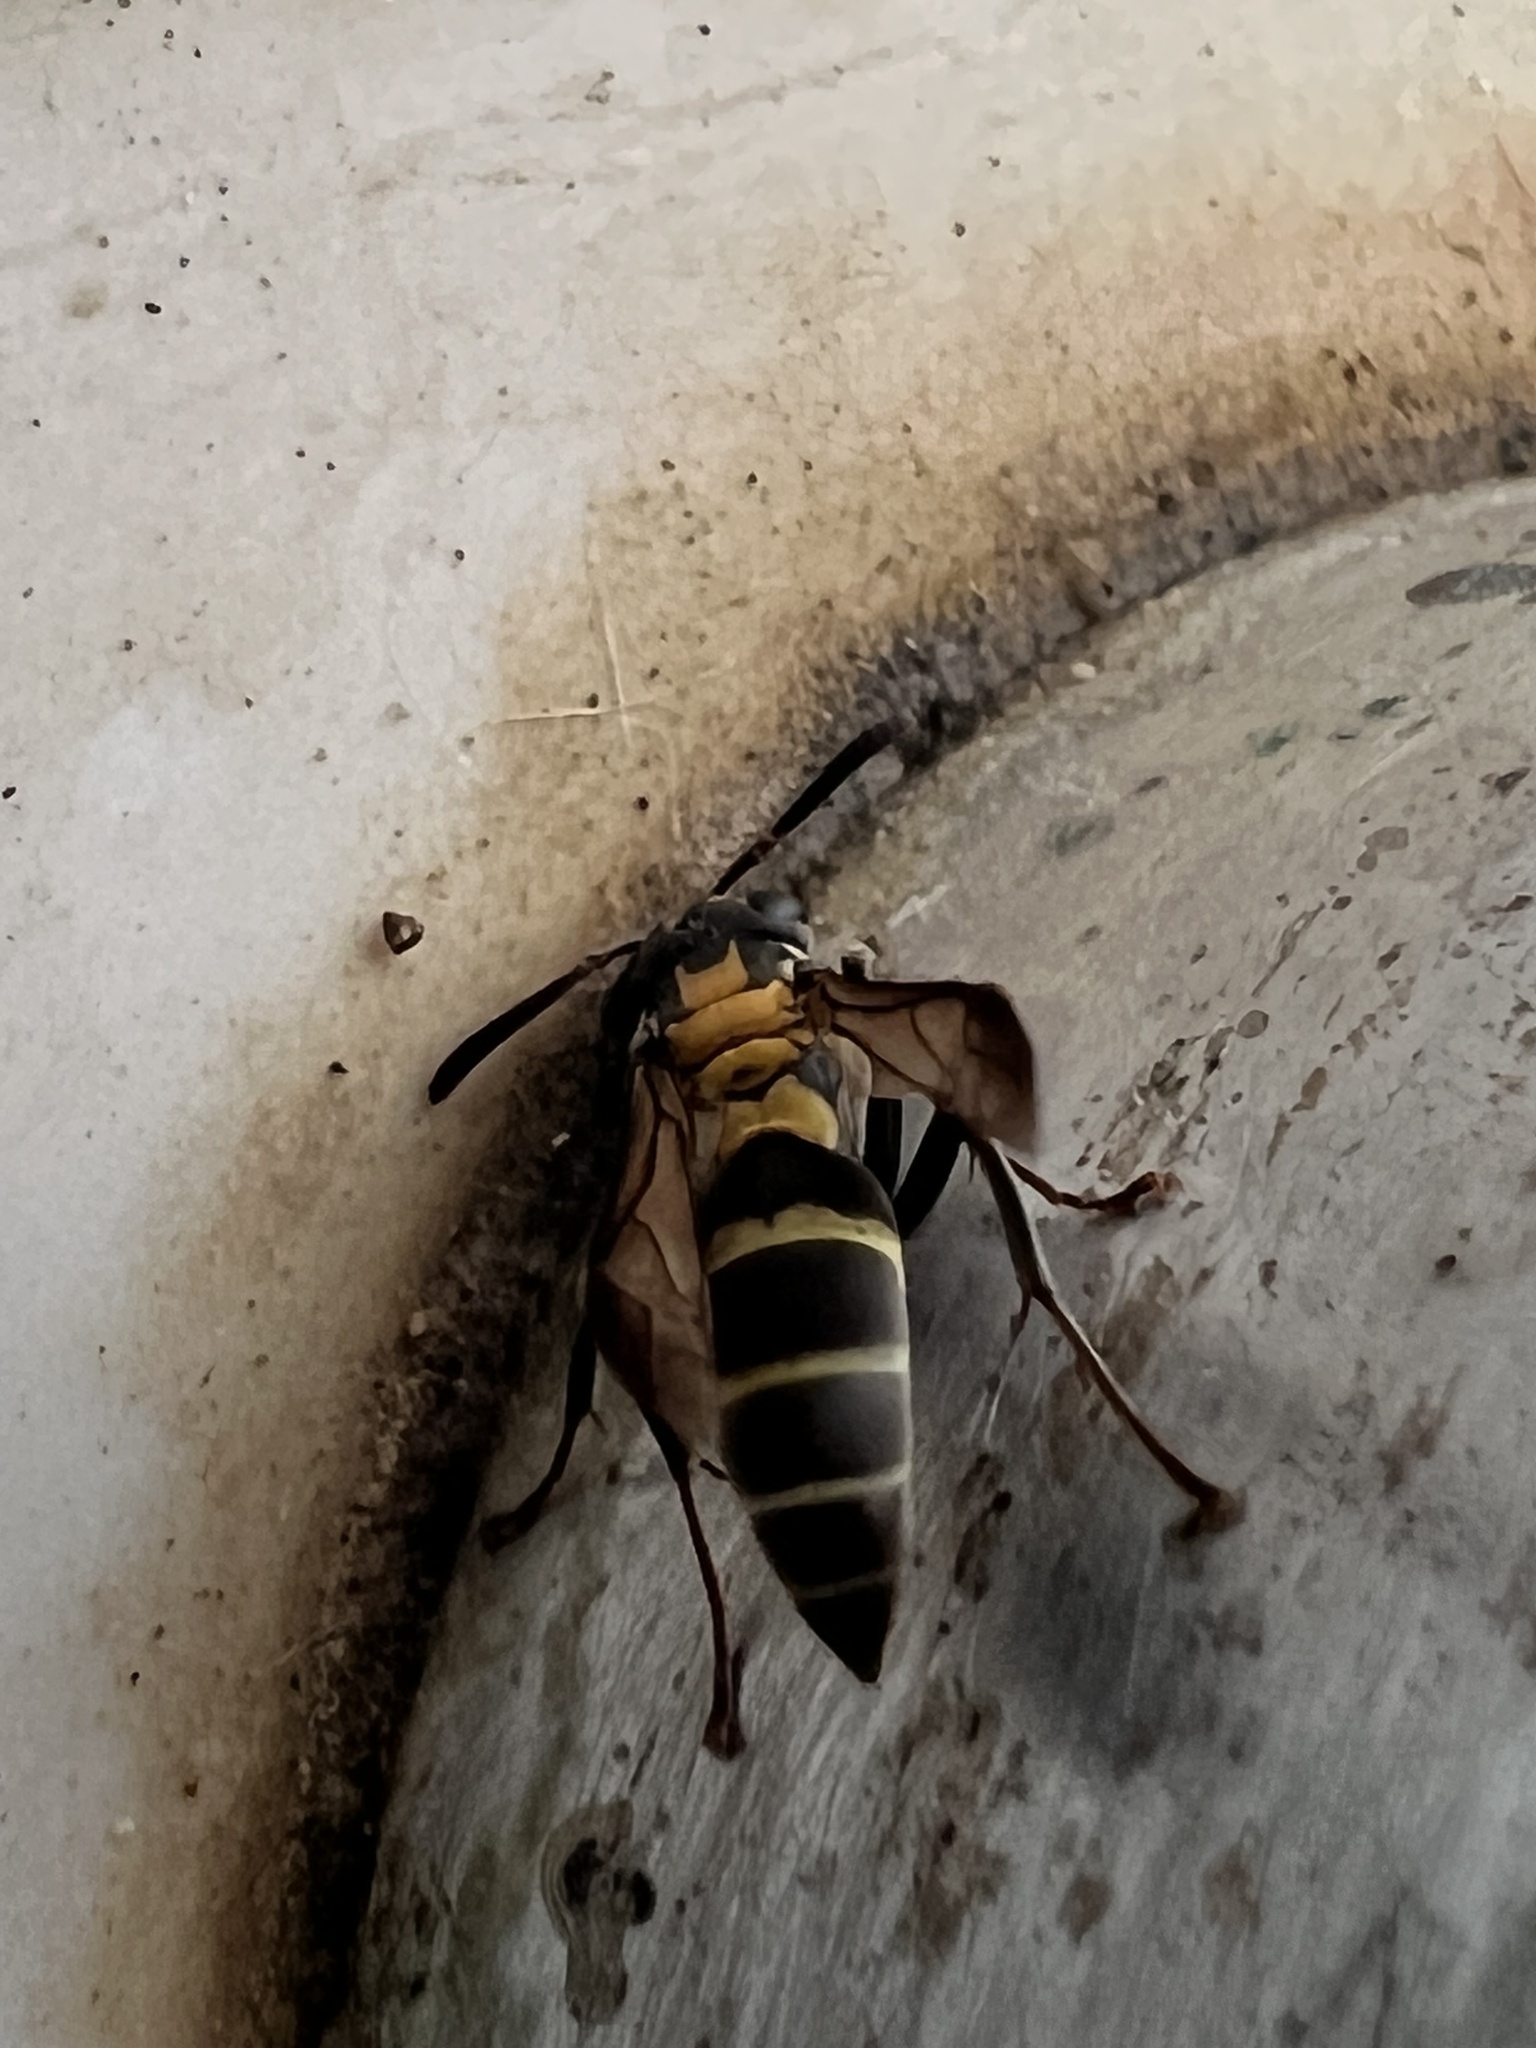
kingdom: Animalia
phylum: Arthropoda
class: Insecta
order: Hymenoptera
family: Eumenidae
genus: Polybia
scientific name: Polybia occidentalis
